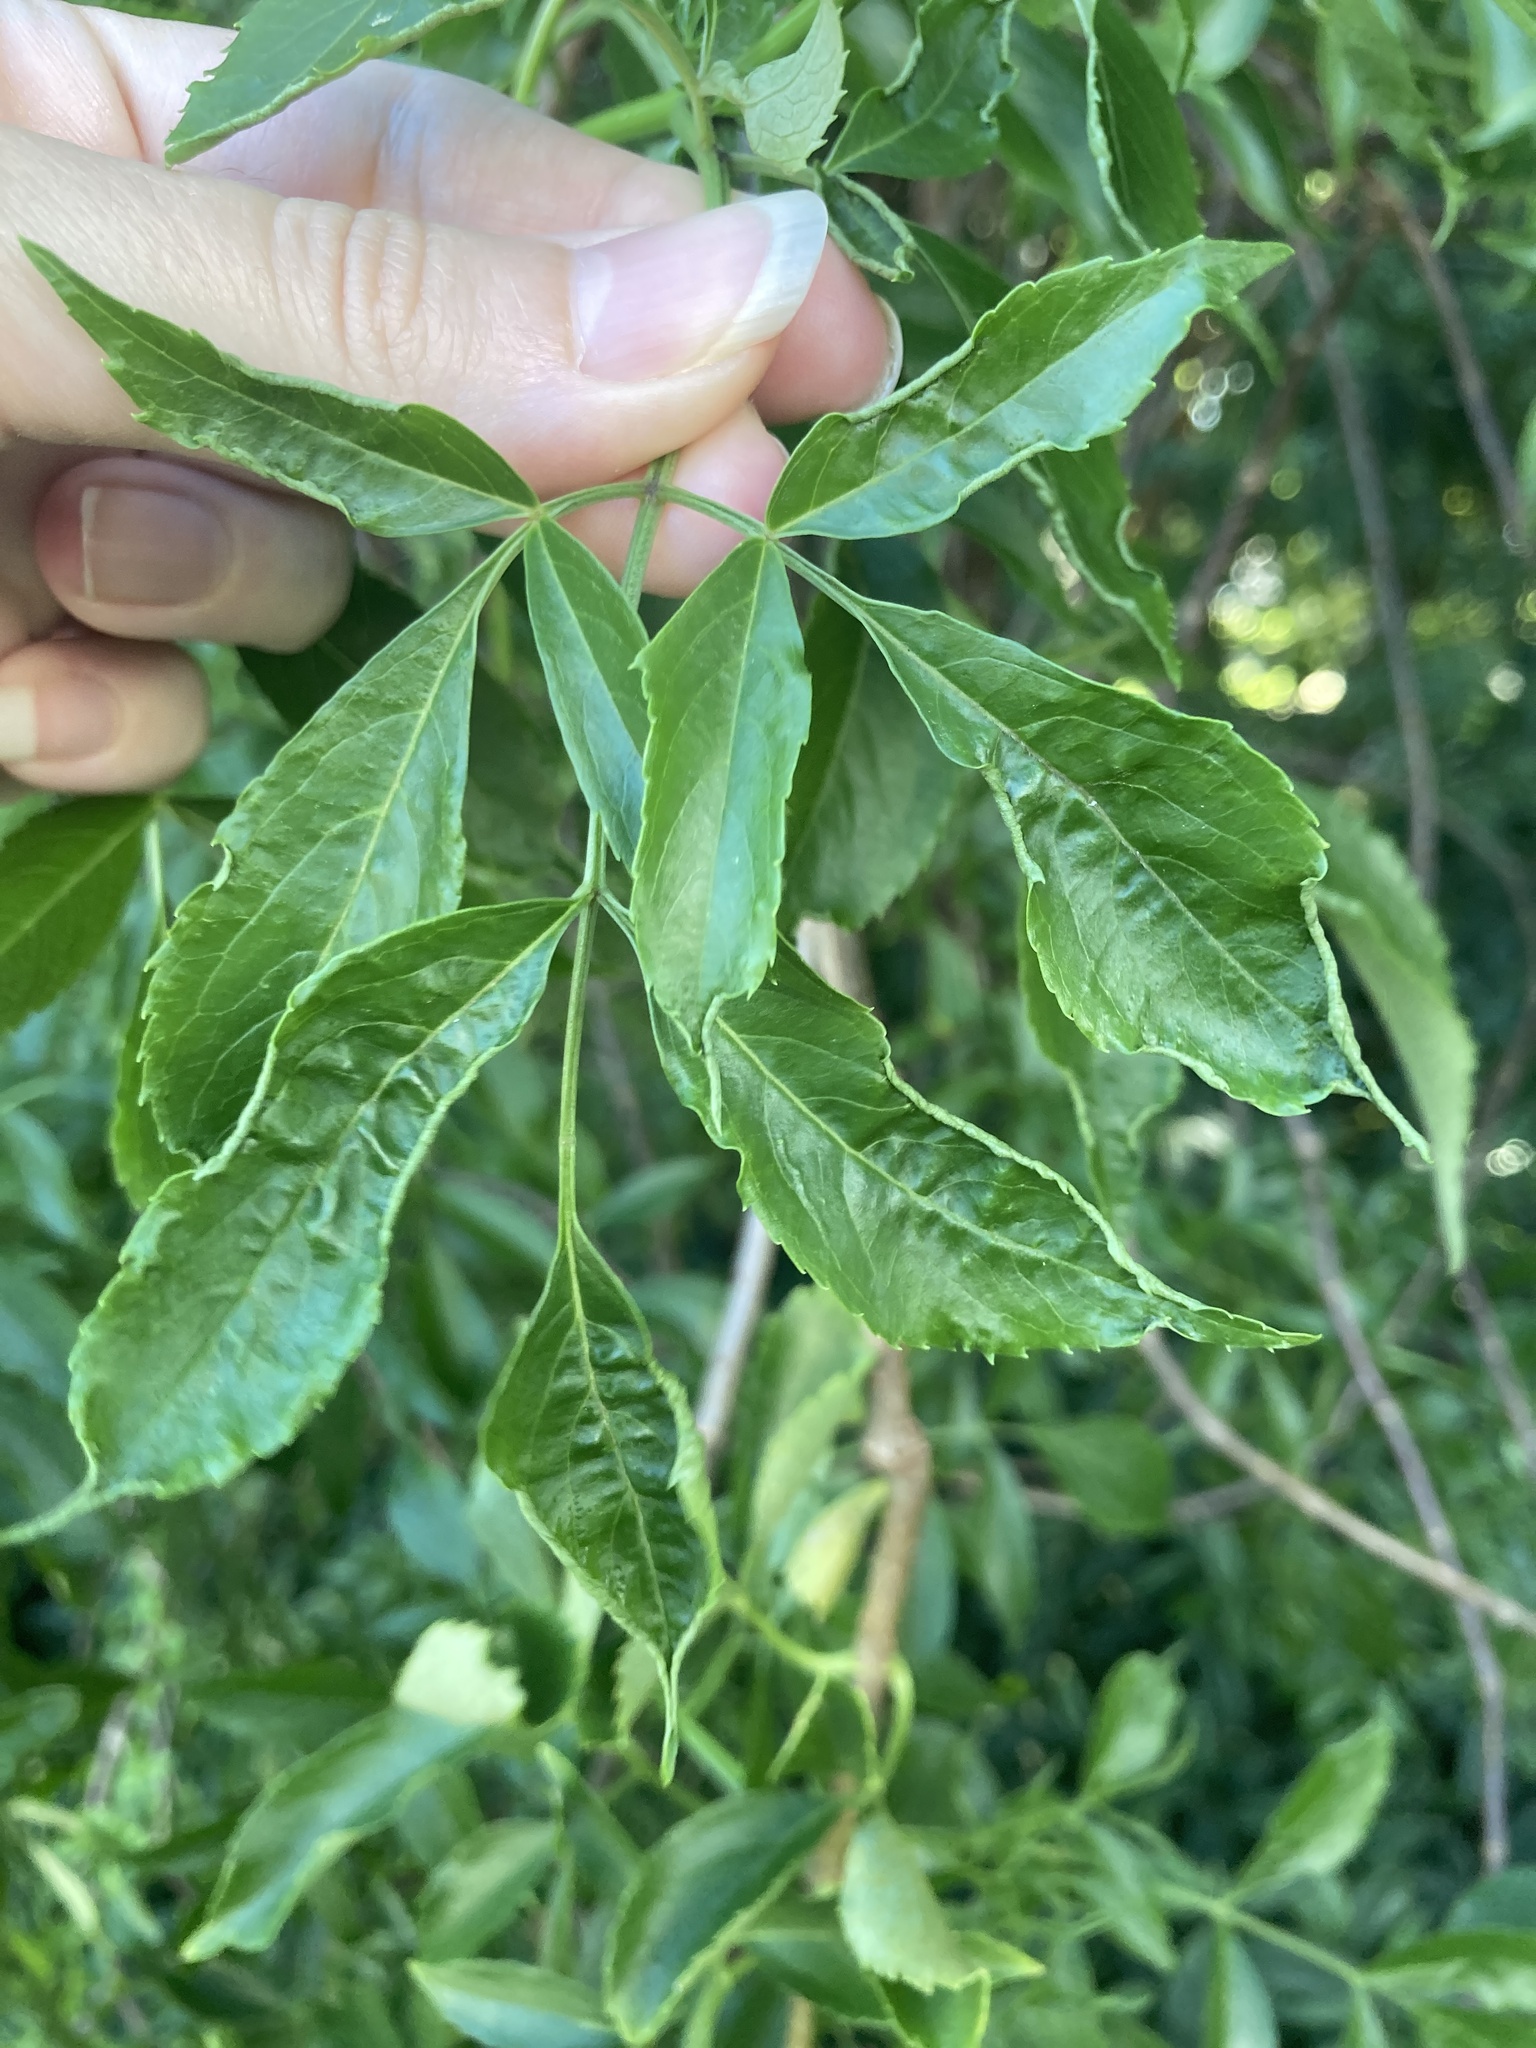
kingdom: Plantae
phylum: Tracheophyta
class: Magnoliopsida
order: Dipsacales
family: Viburnaceae
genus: Sambucus
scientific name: Sambucus canadensis
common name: American elder
